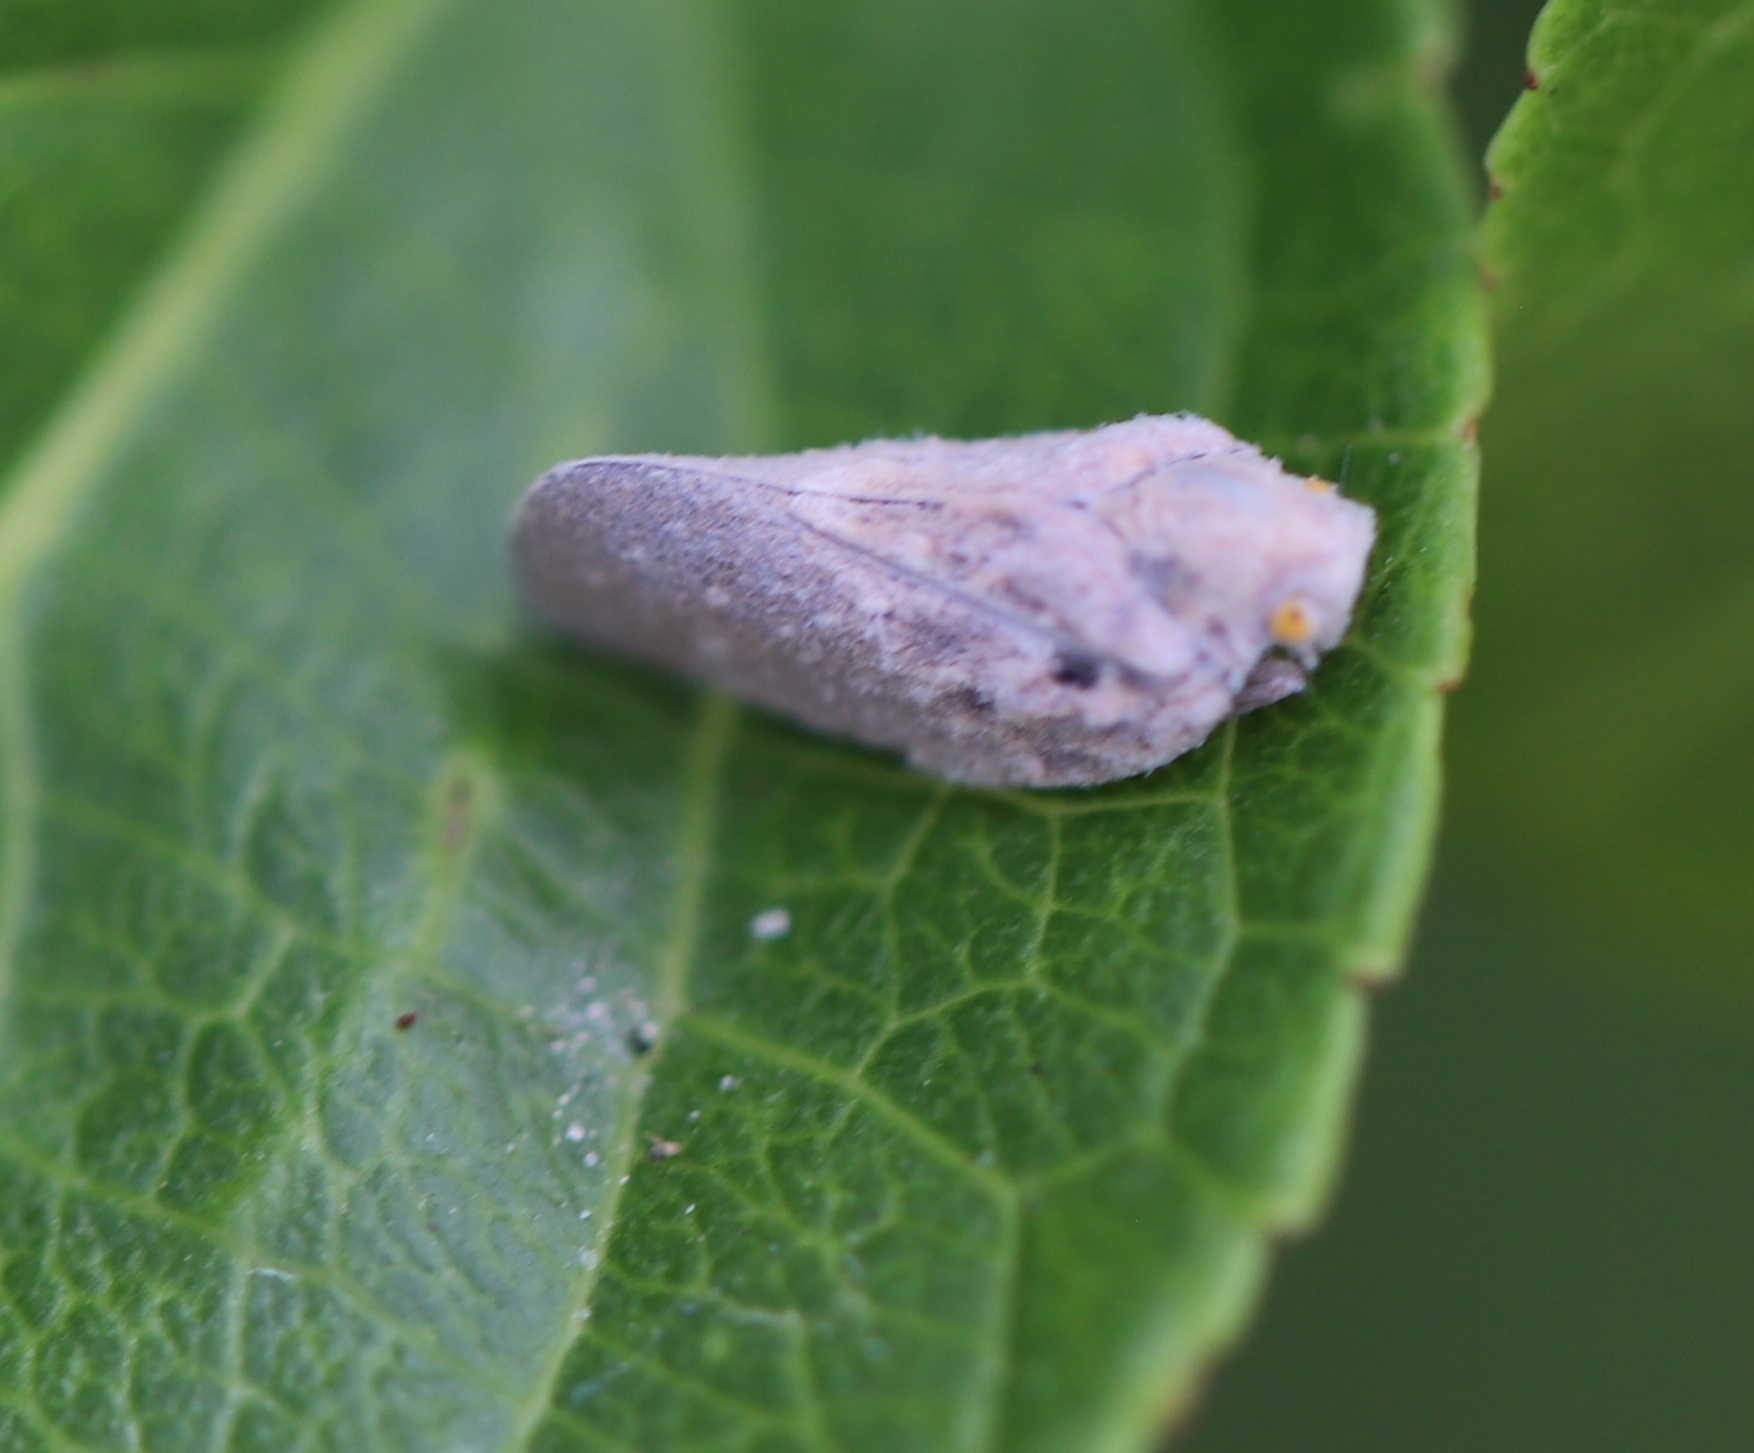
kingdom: Animalia
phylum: Arthropoda
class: Insecta
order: Hemiptera
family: Flatidae
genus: Metcalfa
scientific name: Metcalfa pruinosa
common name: Citrus flatid planthopper
